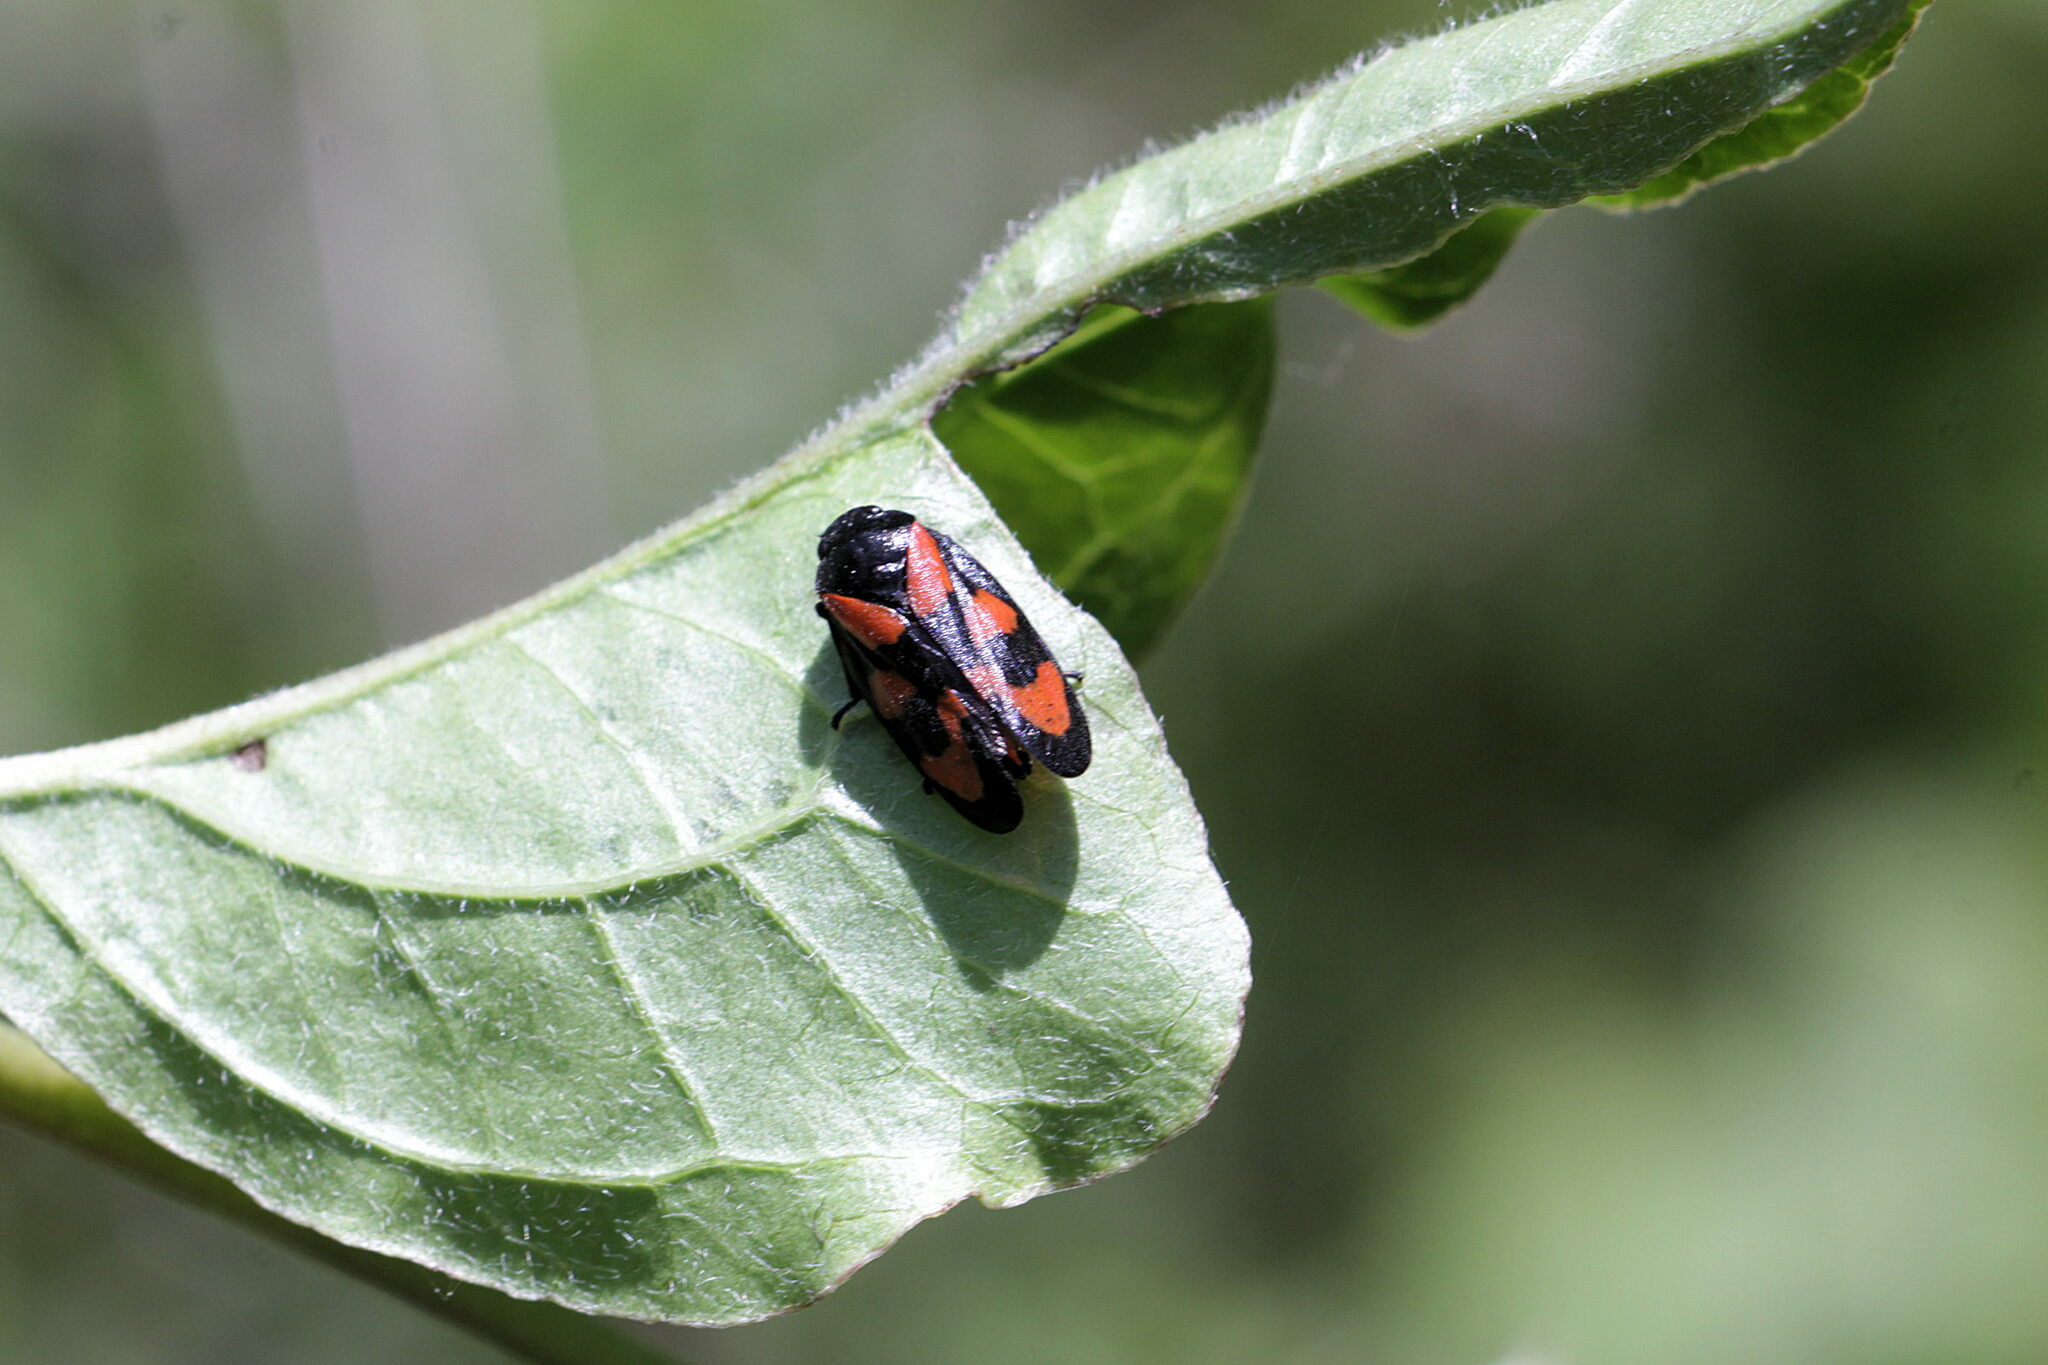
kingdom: Animalia
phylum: Arthropoda
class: Insecta
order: Hemiptera
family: Cercopidae
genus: Cercopis
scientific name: Cercopis vulnerata
